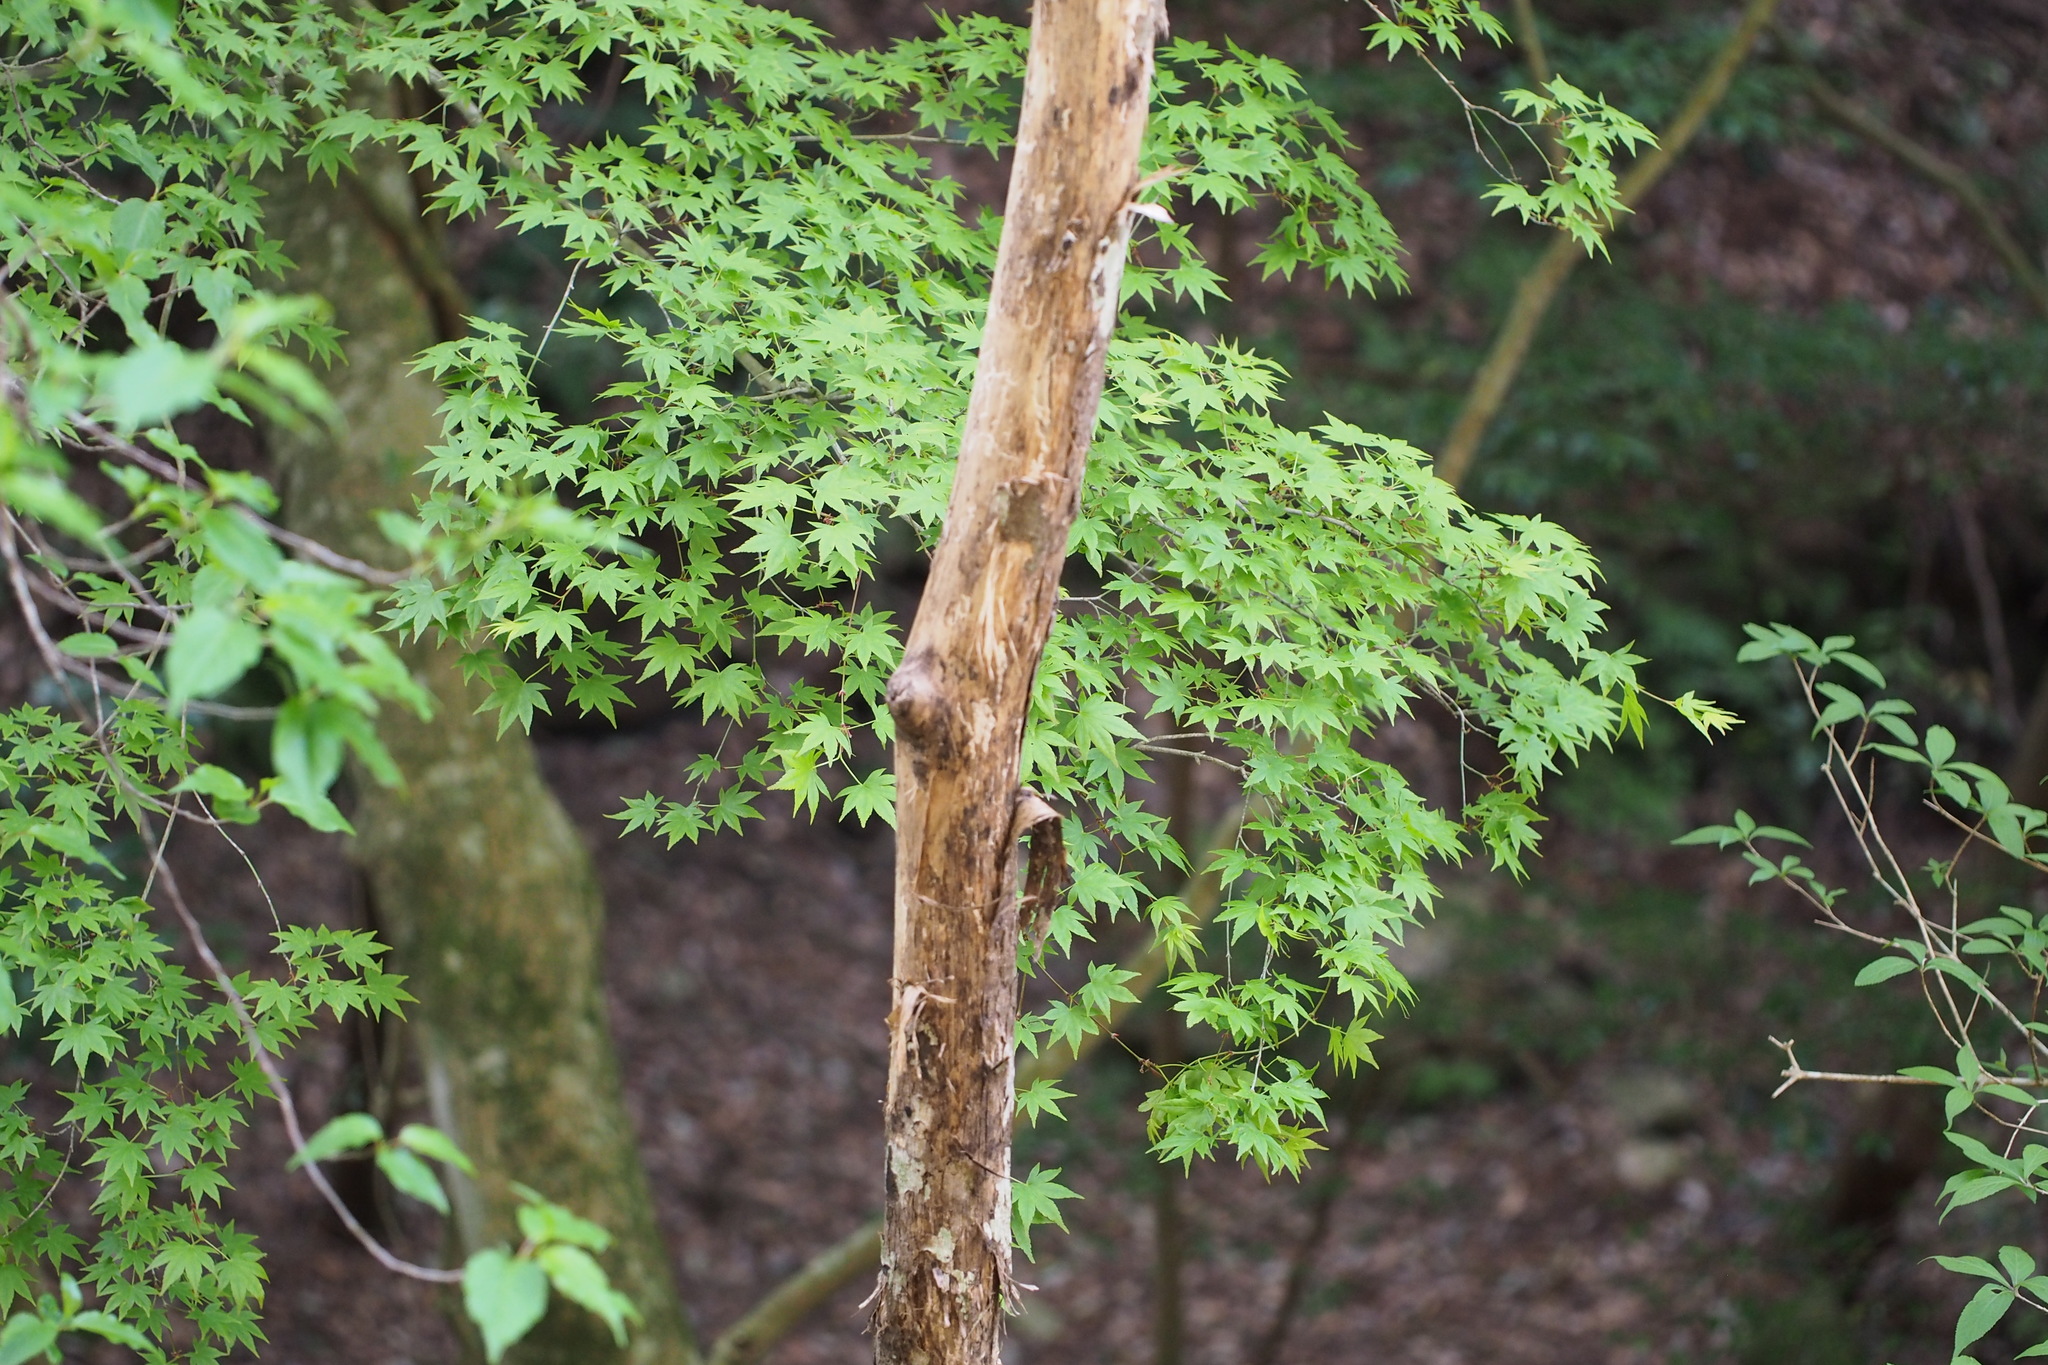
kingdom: Plantae
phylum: Tracheophyta
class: Magnoliopsida
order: Sapindales
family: Sapindaceae
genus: Acer
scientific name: Acer palmatum
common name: Japanese maple
